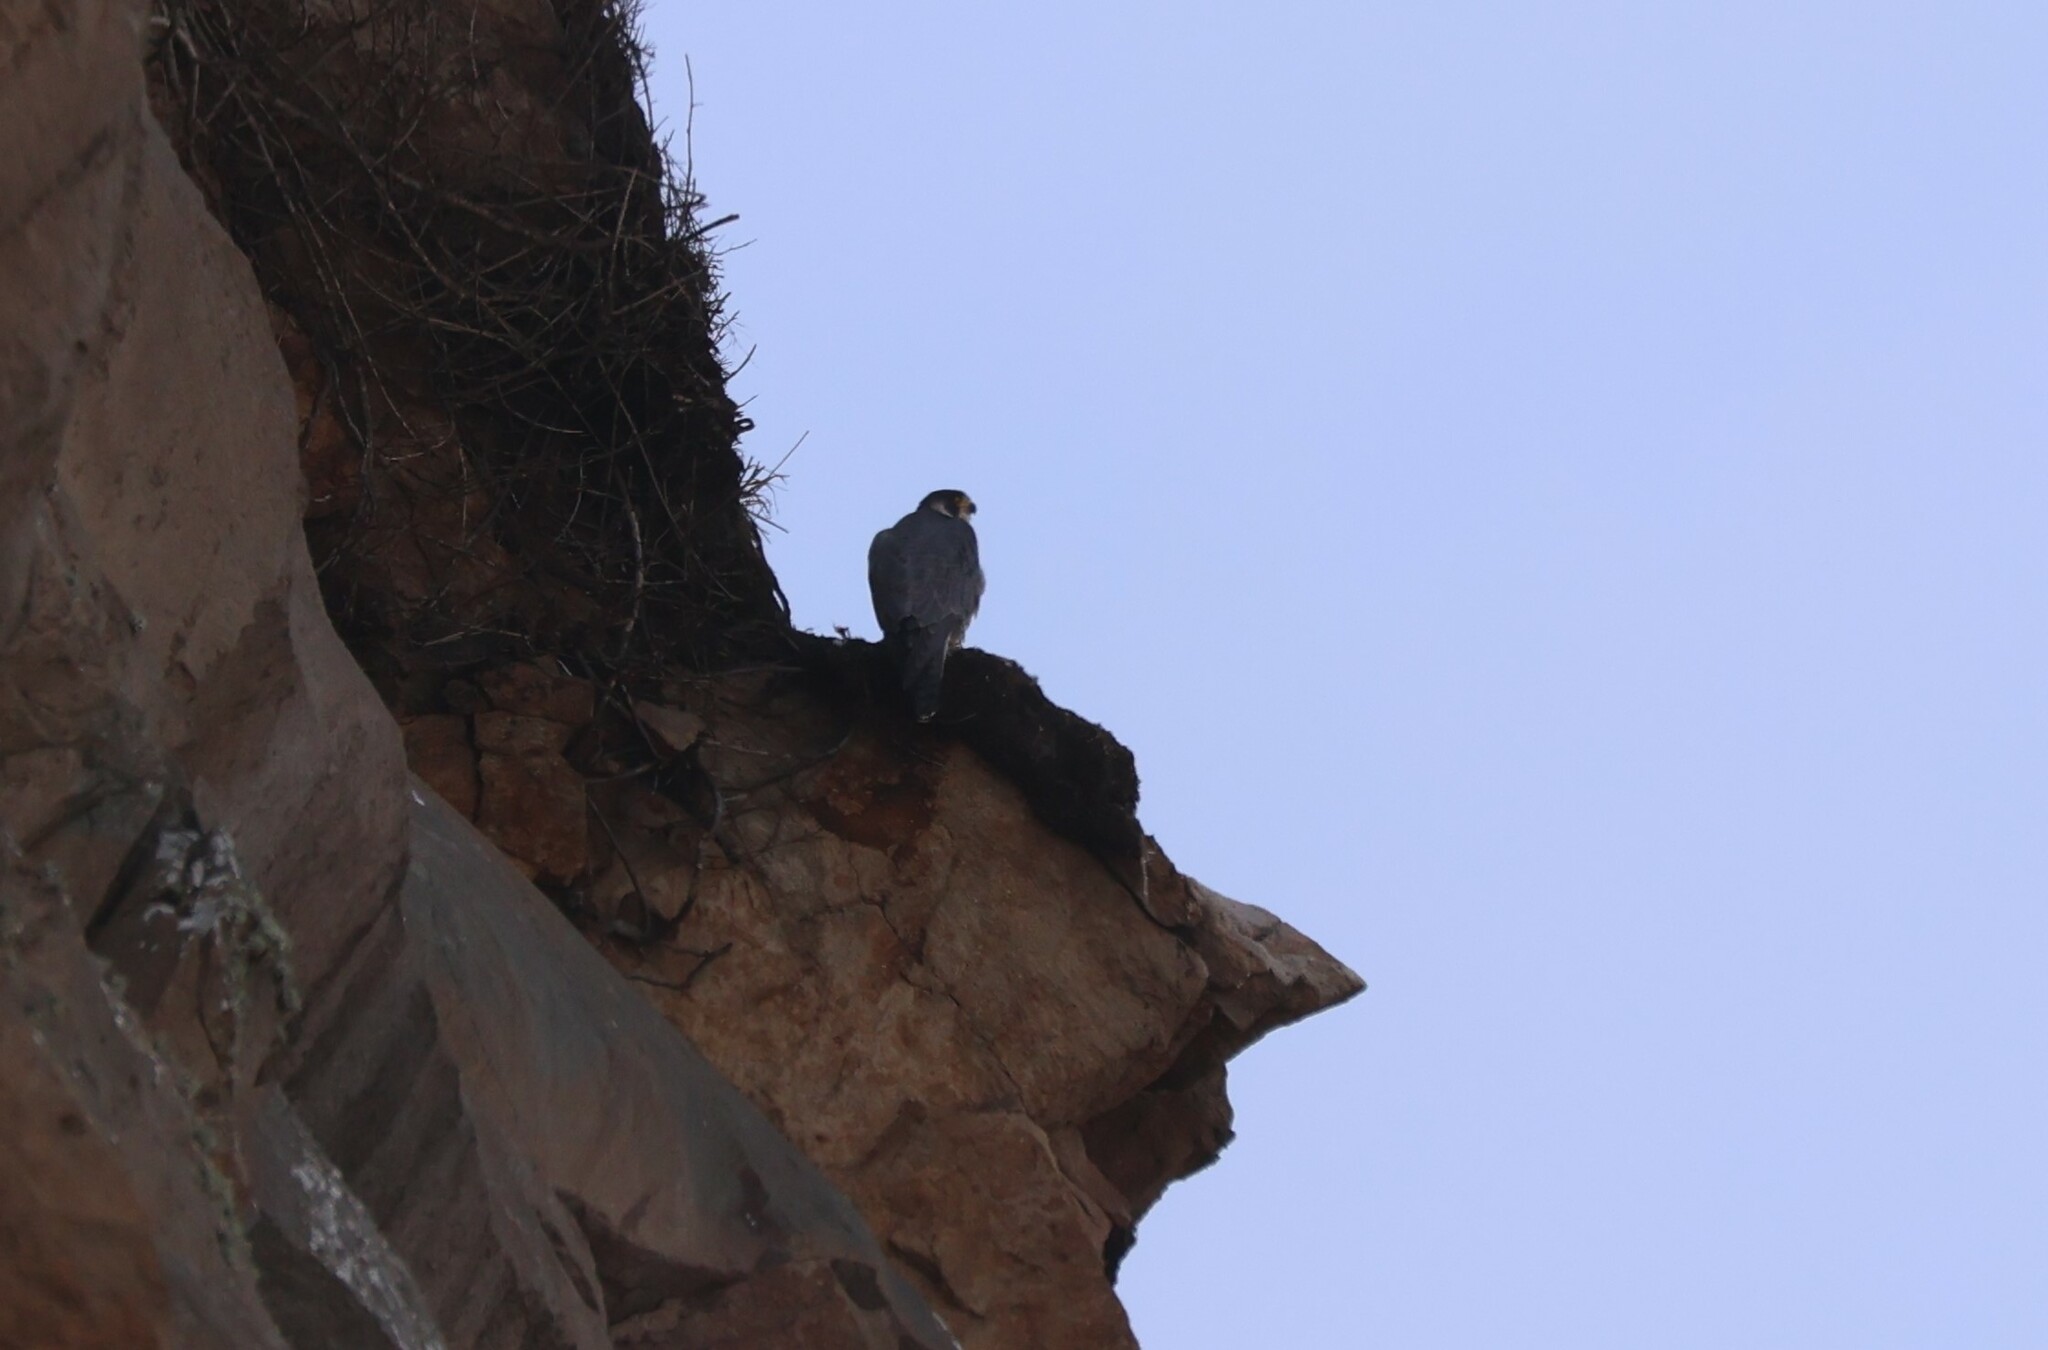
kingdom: Animalia
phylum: Chordata
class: Aves
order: Falconiformes
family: Falconidae
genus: Falco
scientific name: Falco peregrinus
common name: Peregrine falcon
